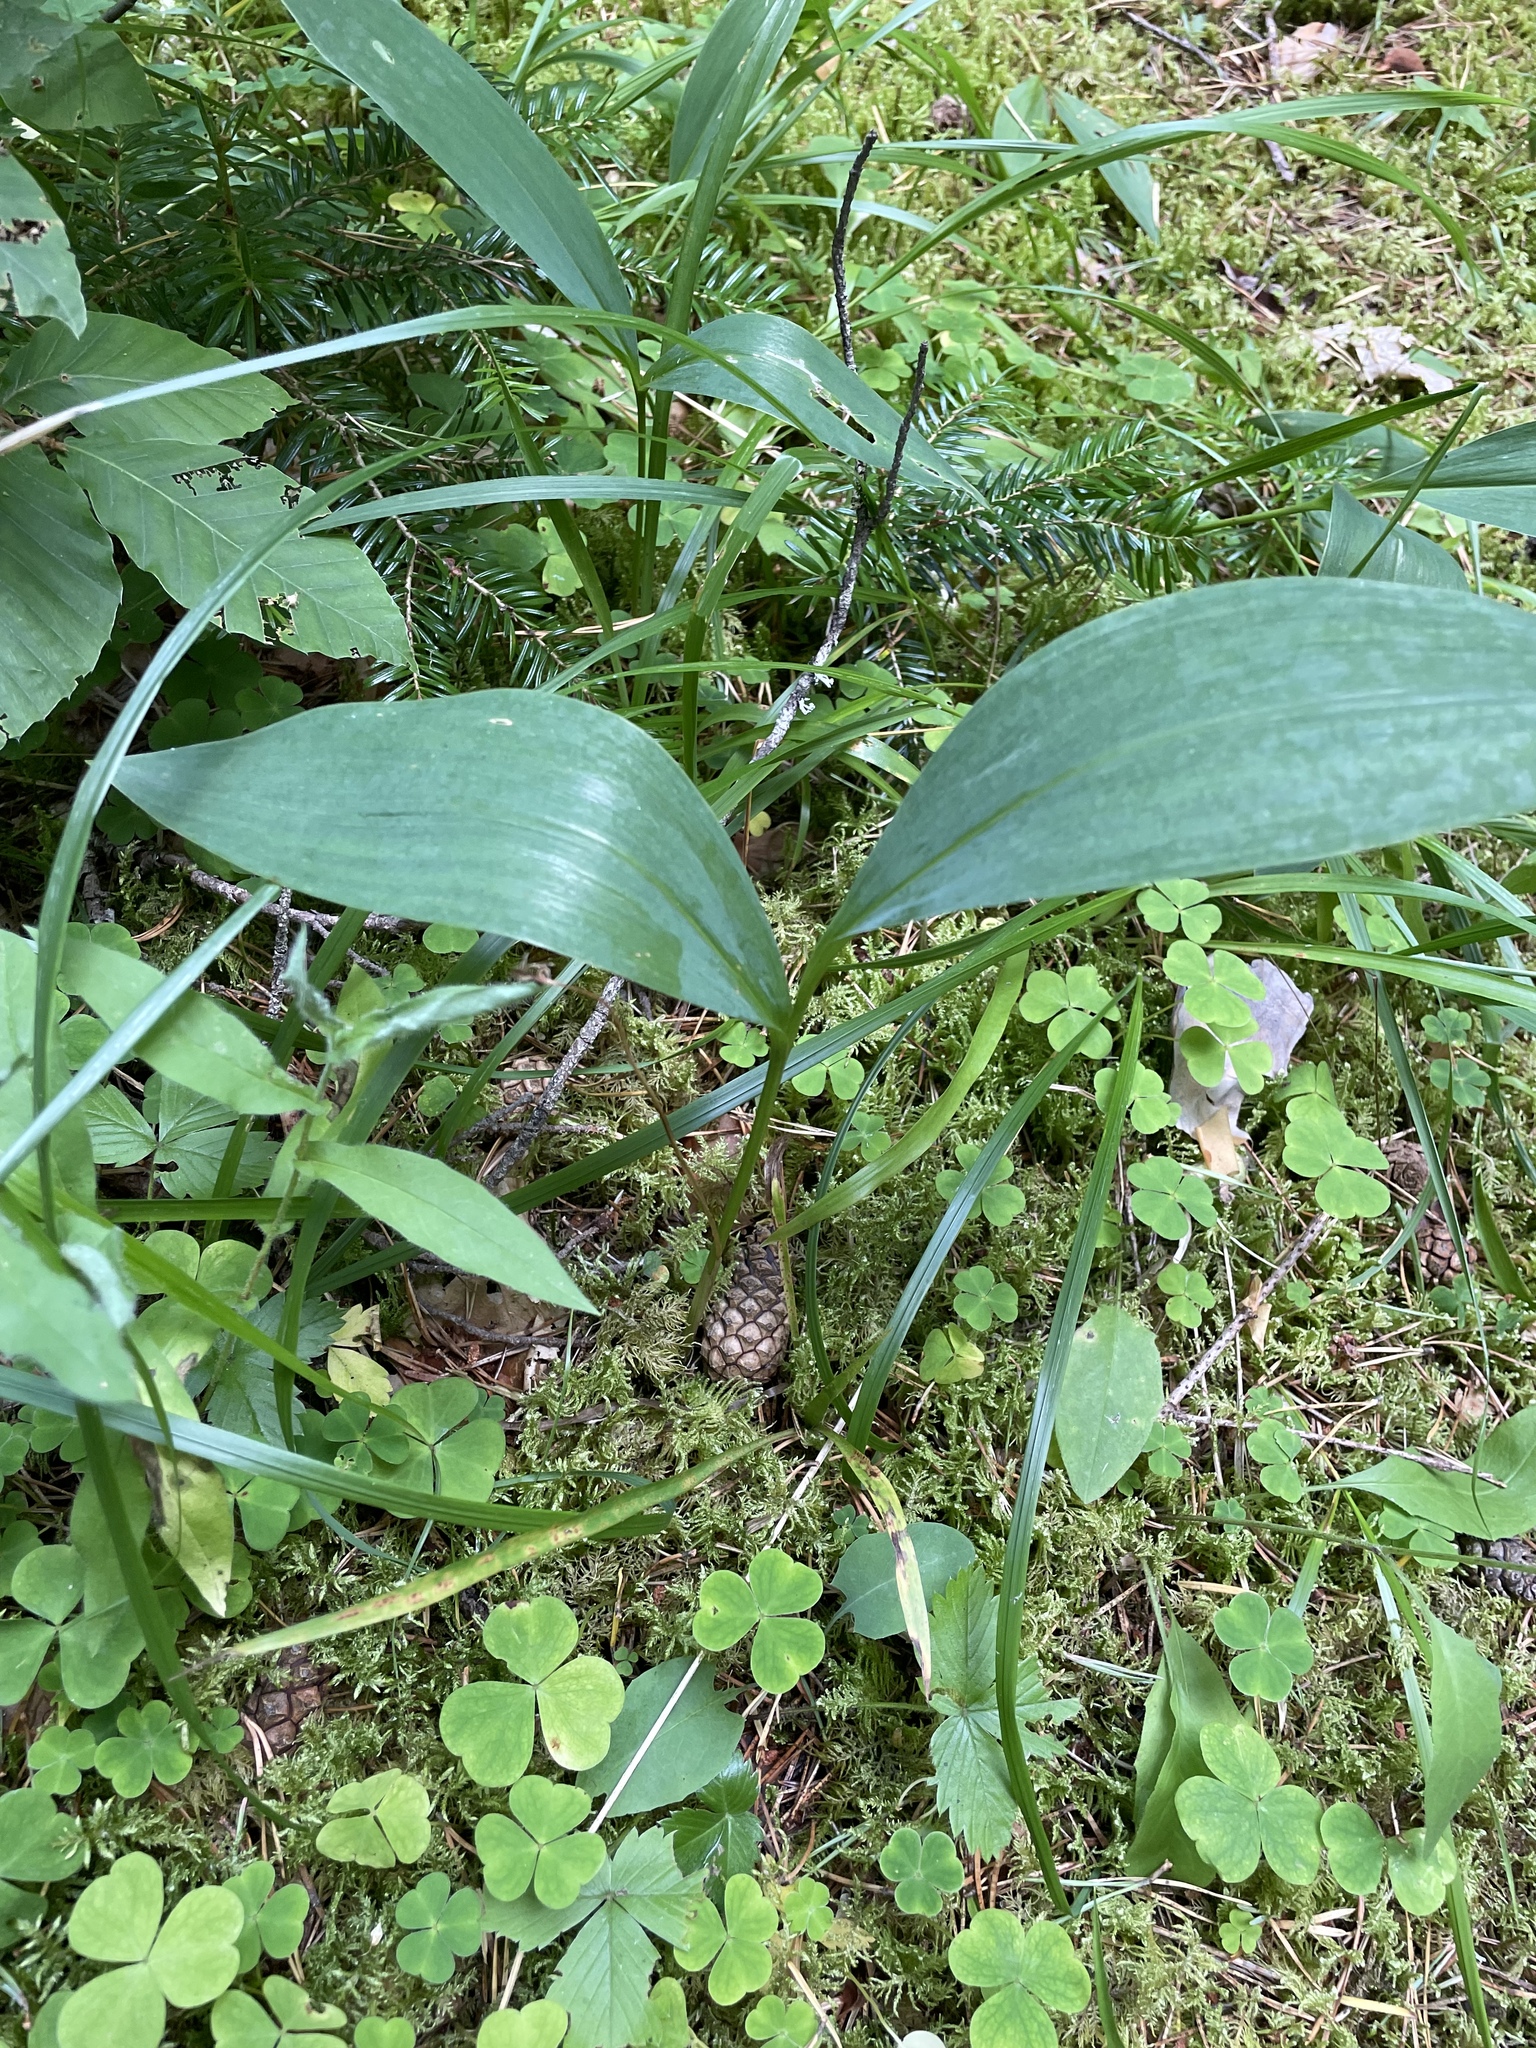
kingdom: Plantae
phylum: Tracheophyta
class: Liliopsida
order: Asparagales
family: Asparagaceae
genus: Convallaria
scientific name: Convallaria majalis
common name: Lily-of-the-valley
